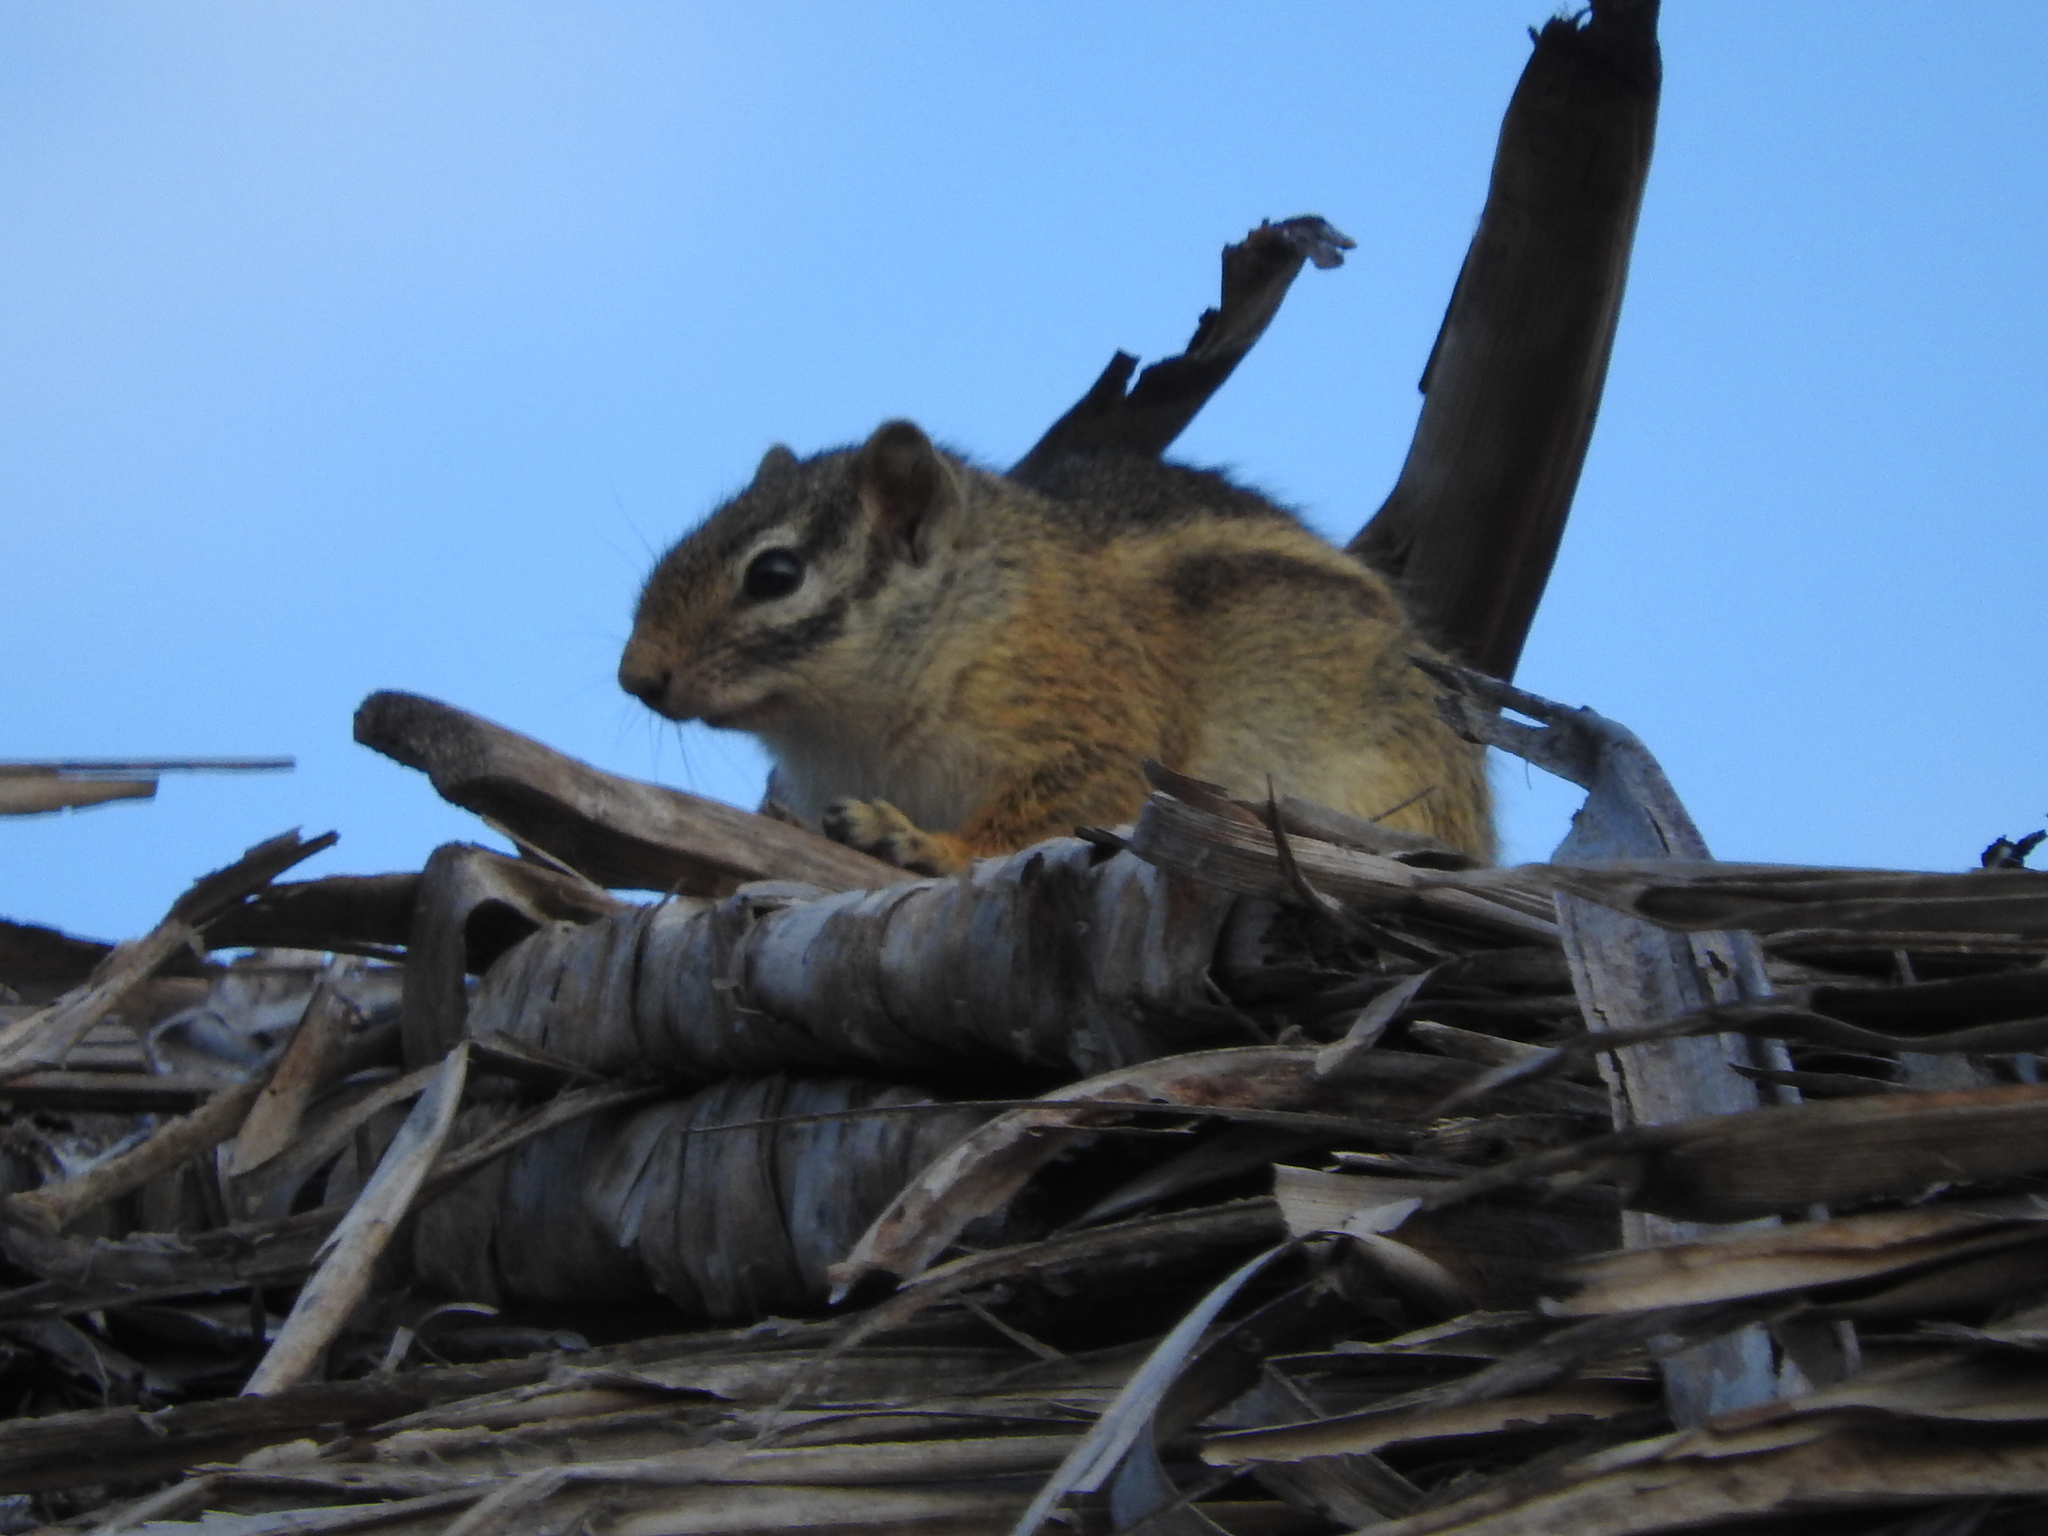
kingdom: Animalia
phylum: Chordata
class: Mammalia
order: Rodentia
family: Sciuridae
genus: Paraxerus
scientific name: Paraxerus flavovittis
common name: Striped bush squirrel
